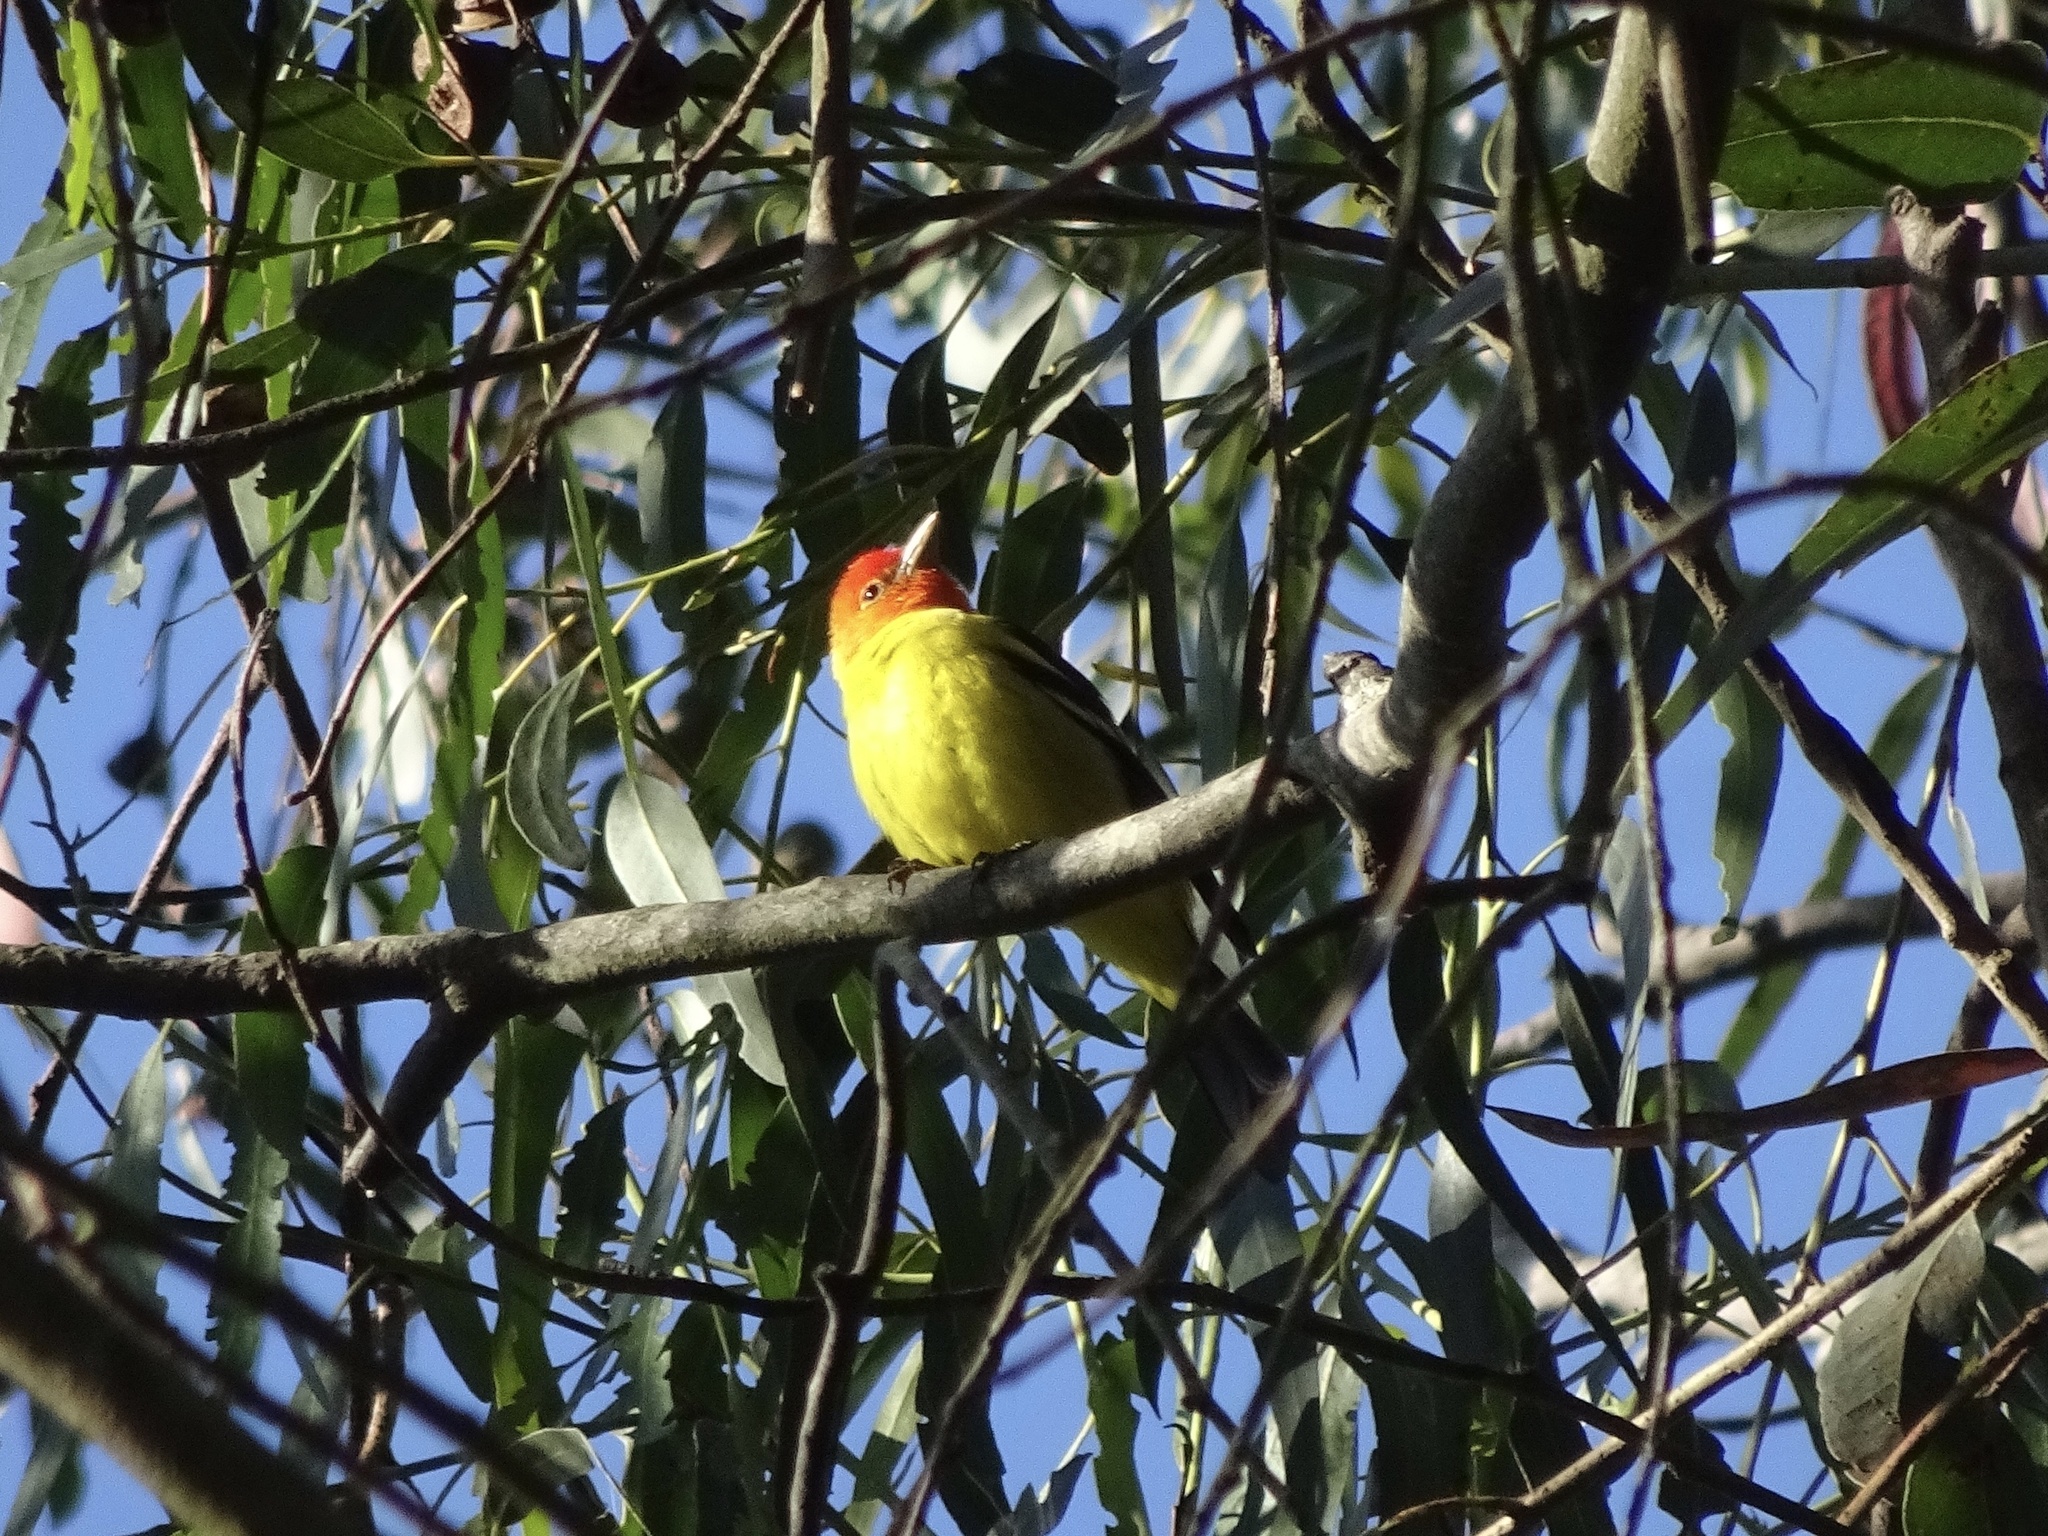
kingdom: Animalia
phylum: Chordata
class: Aves
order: Passeriformes
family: Cardinalidae
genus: Piranga
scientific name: Piranga ludoviciana
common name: Western tanager
